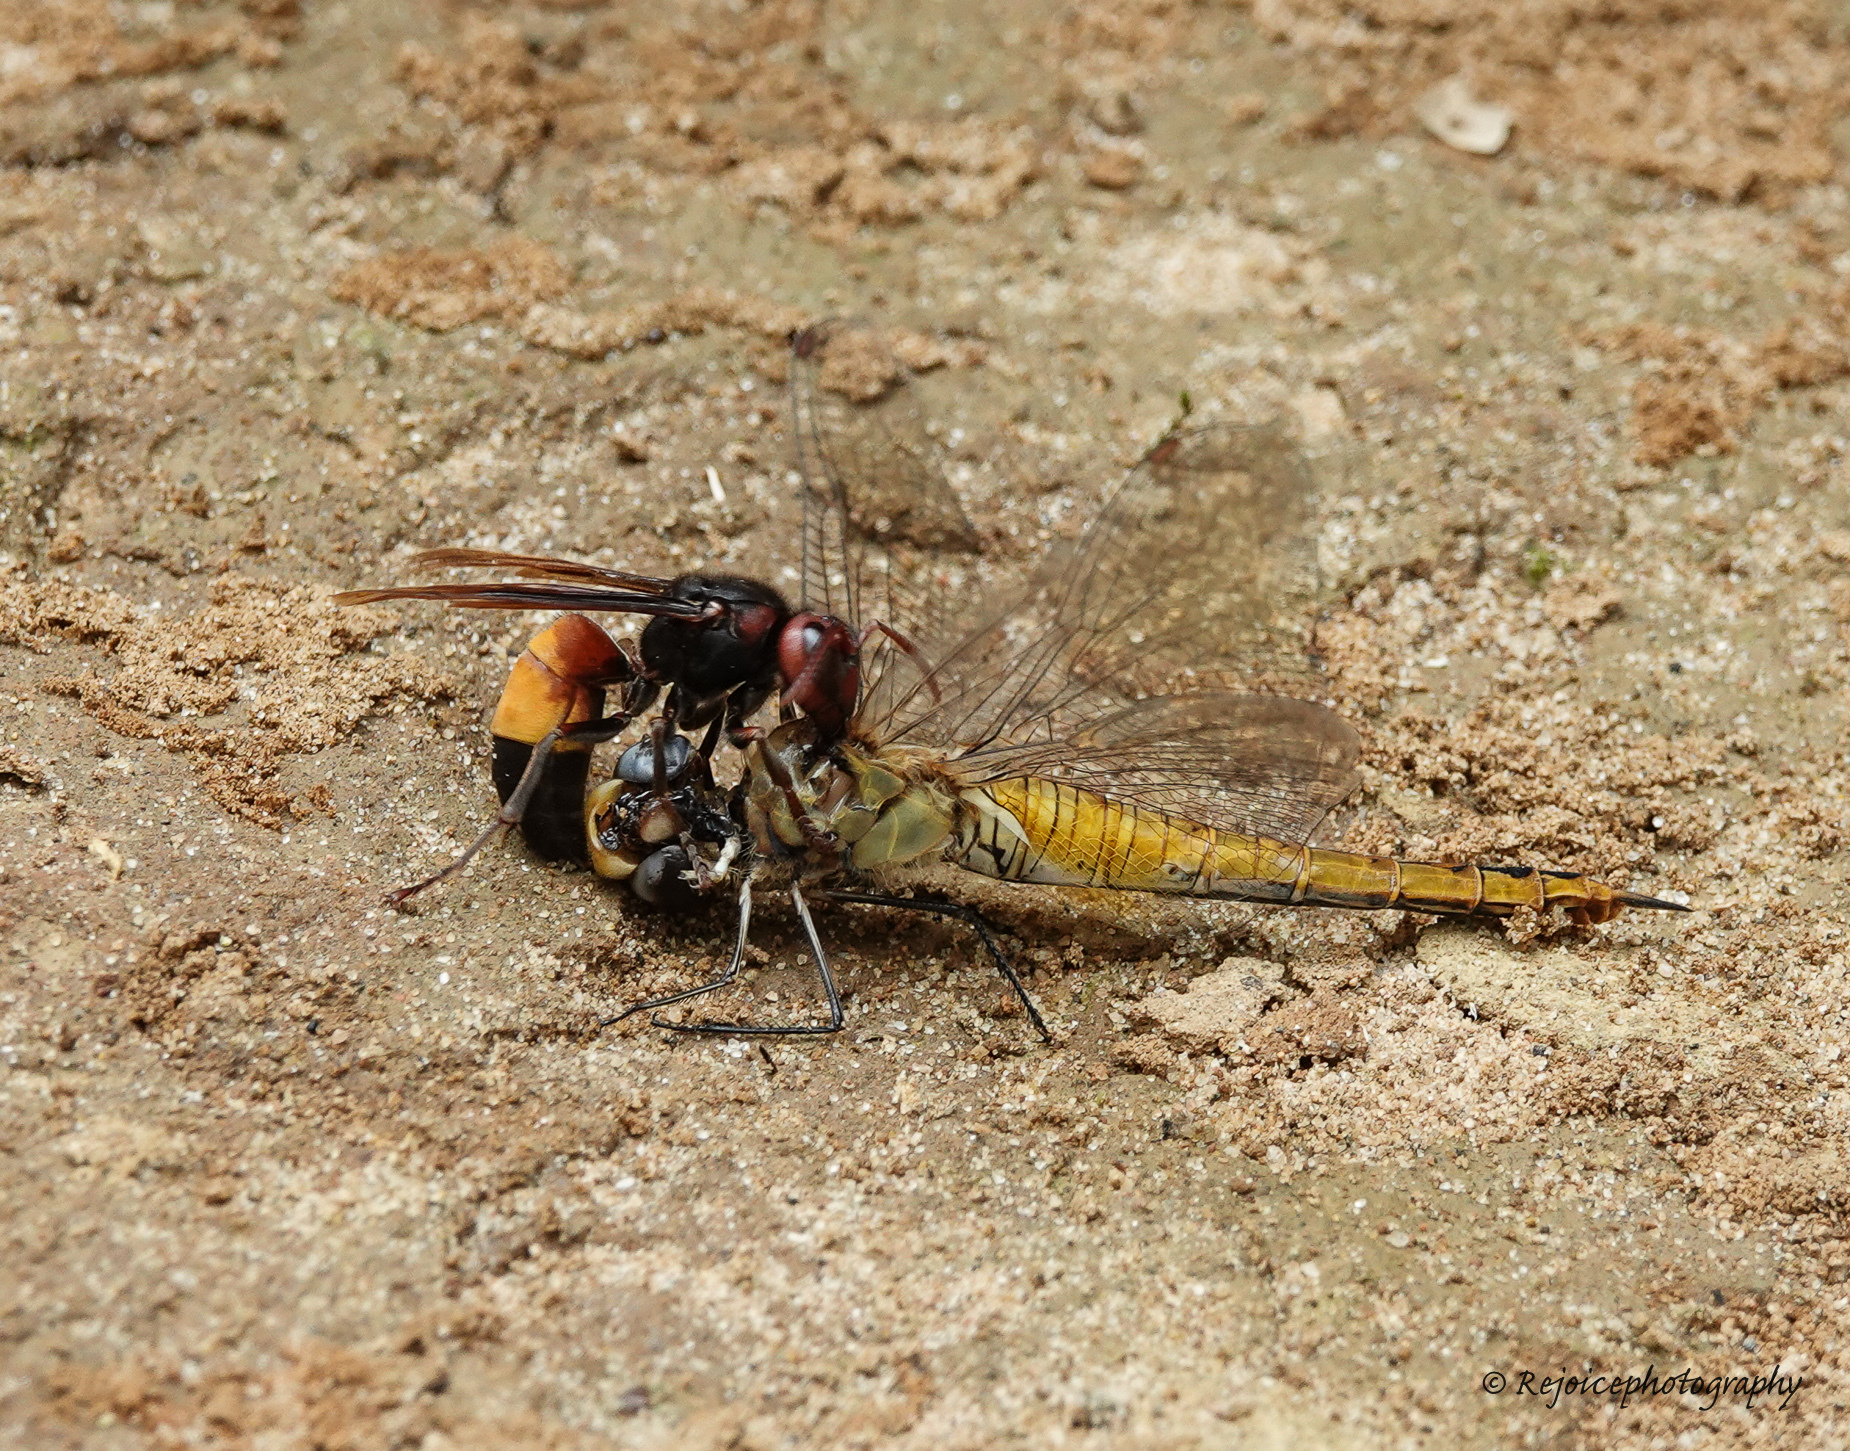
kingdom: Animalia
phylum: Arthropoda
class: Insecta
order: Hymenoptera
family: Vespidae
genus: Vespa
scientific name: Vespa affinis
